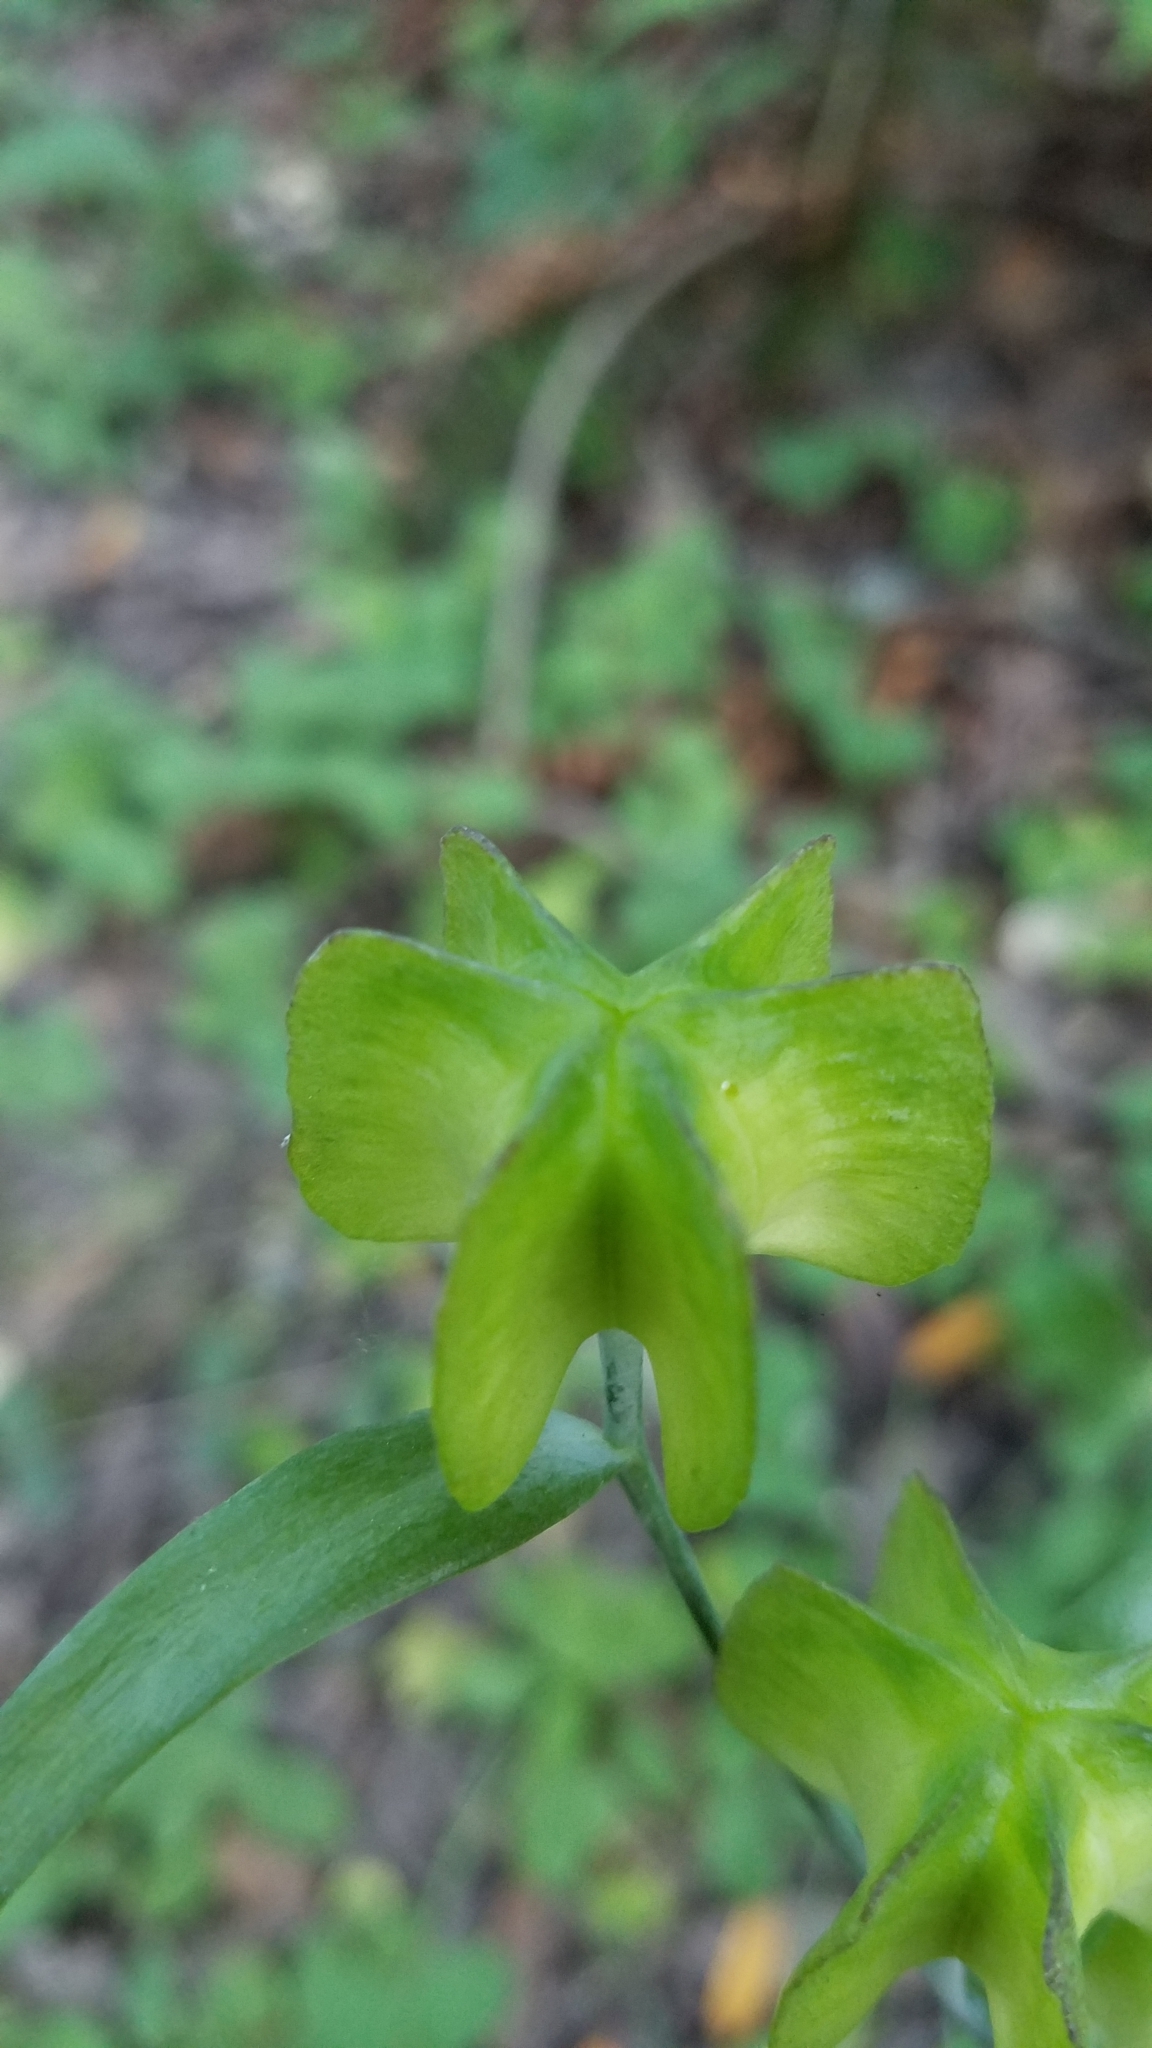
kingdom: Plantae
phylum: Tracheophyta
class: Liliopsida
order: Liliales
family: Liliaceae
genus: Fritillaria
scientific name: Fritillaria affinis
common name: Ojai fritillary
